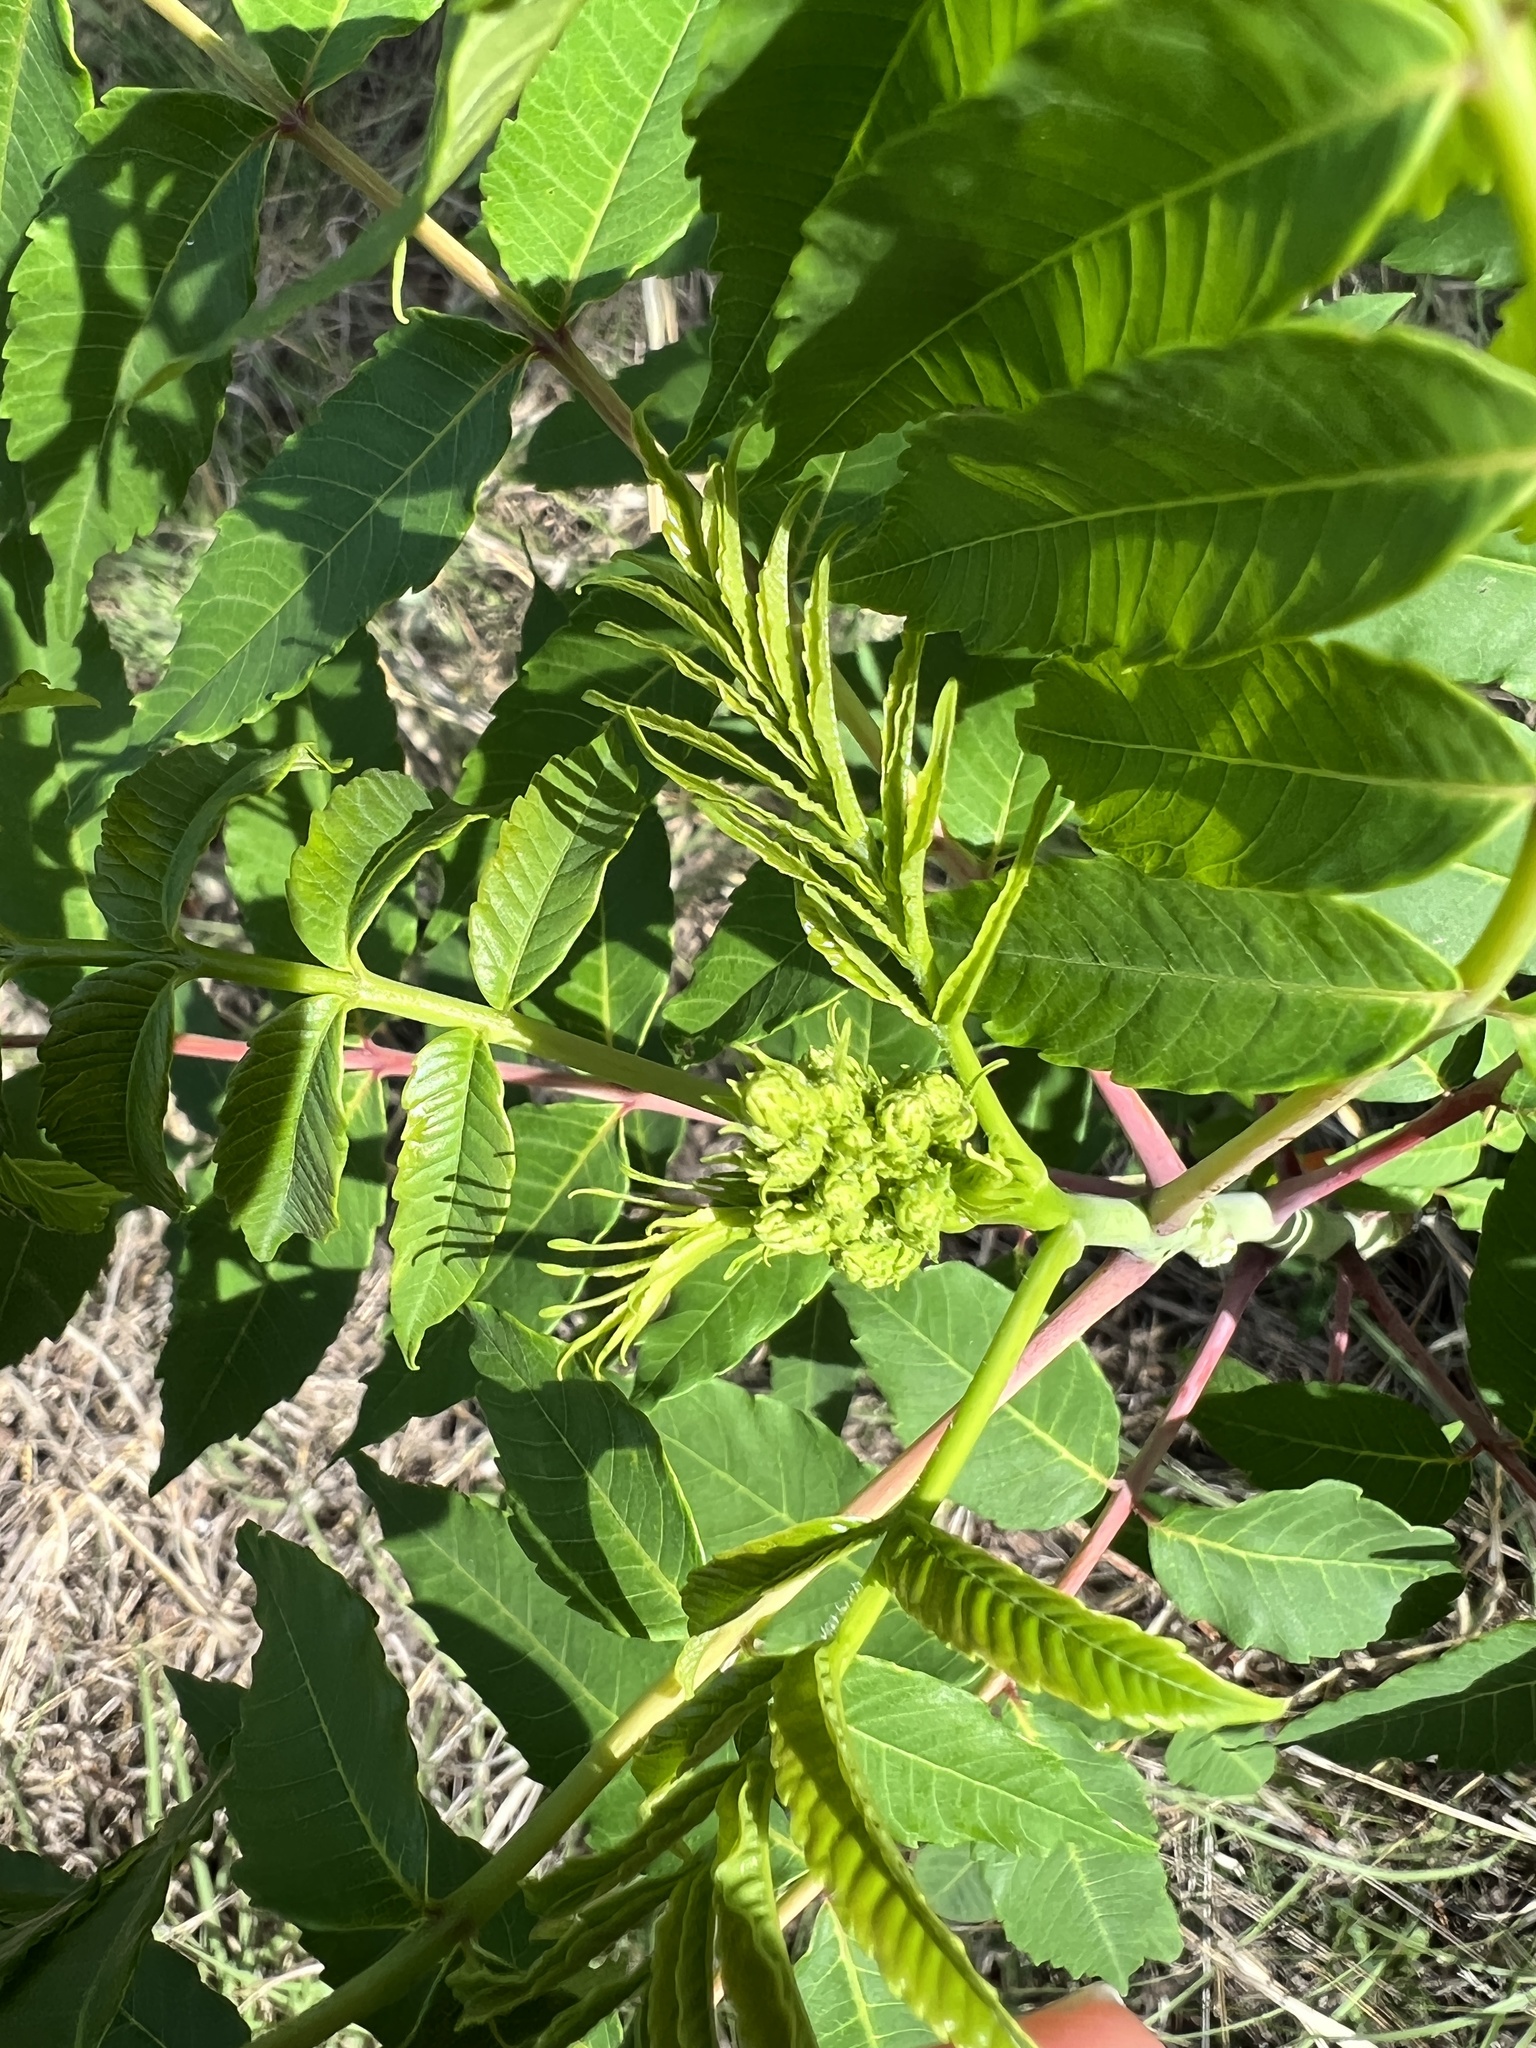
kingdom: Plantae
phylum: Tracheophyta
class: Magnoliopsida
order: Sapindales
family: Anacardiaceae
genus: Rhus
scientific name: Rhus glabra
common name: Scarlet sumac
